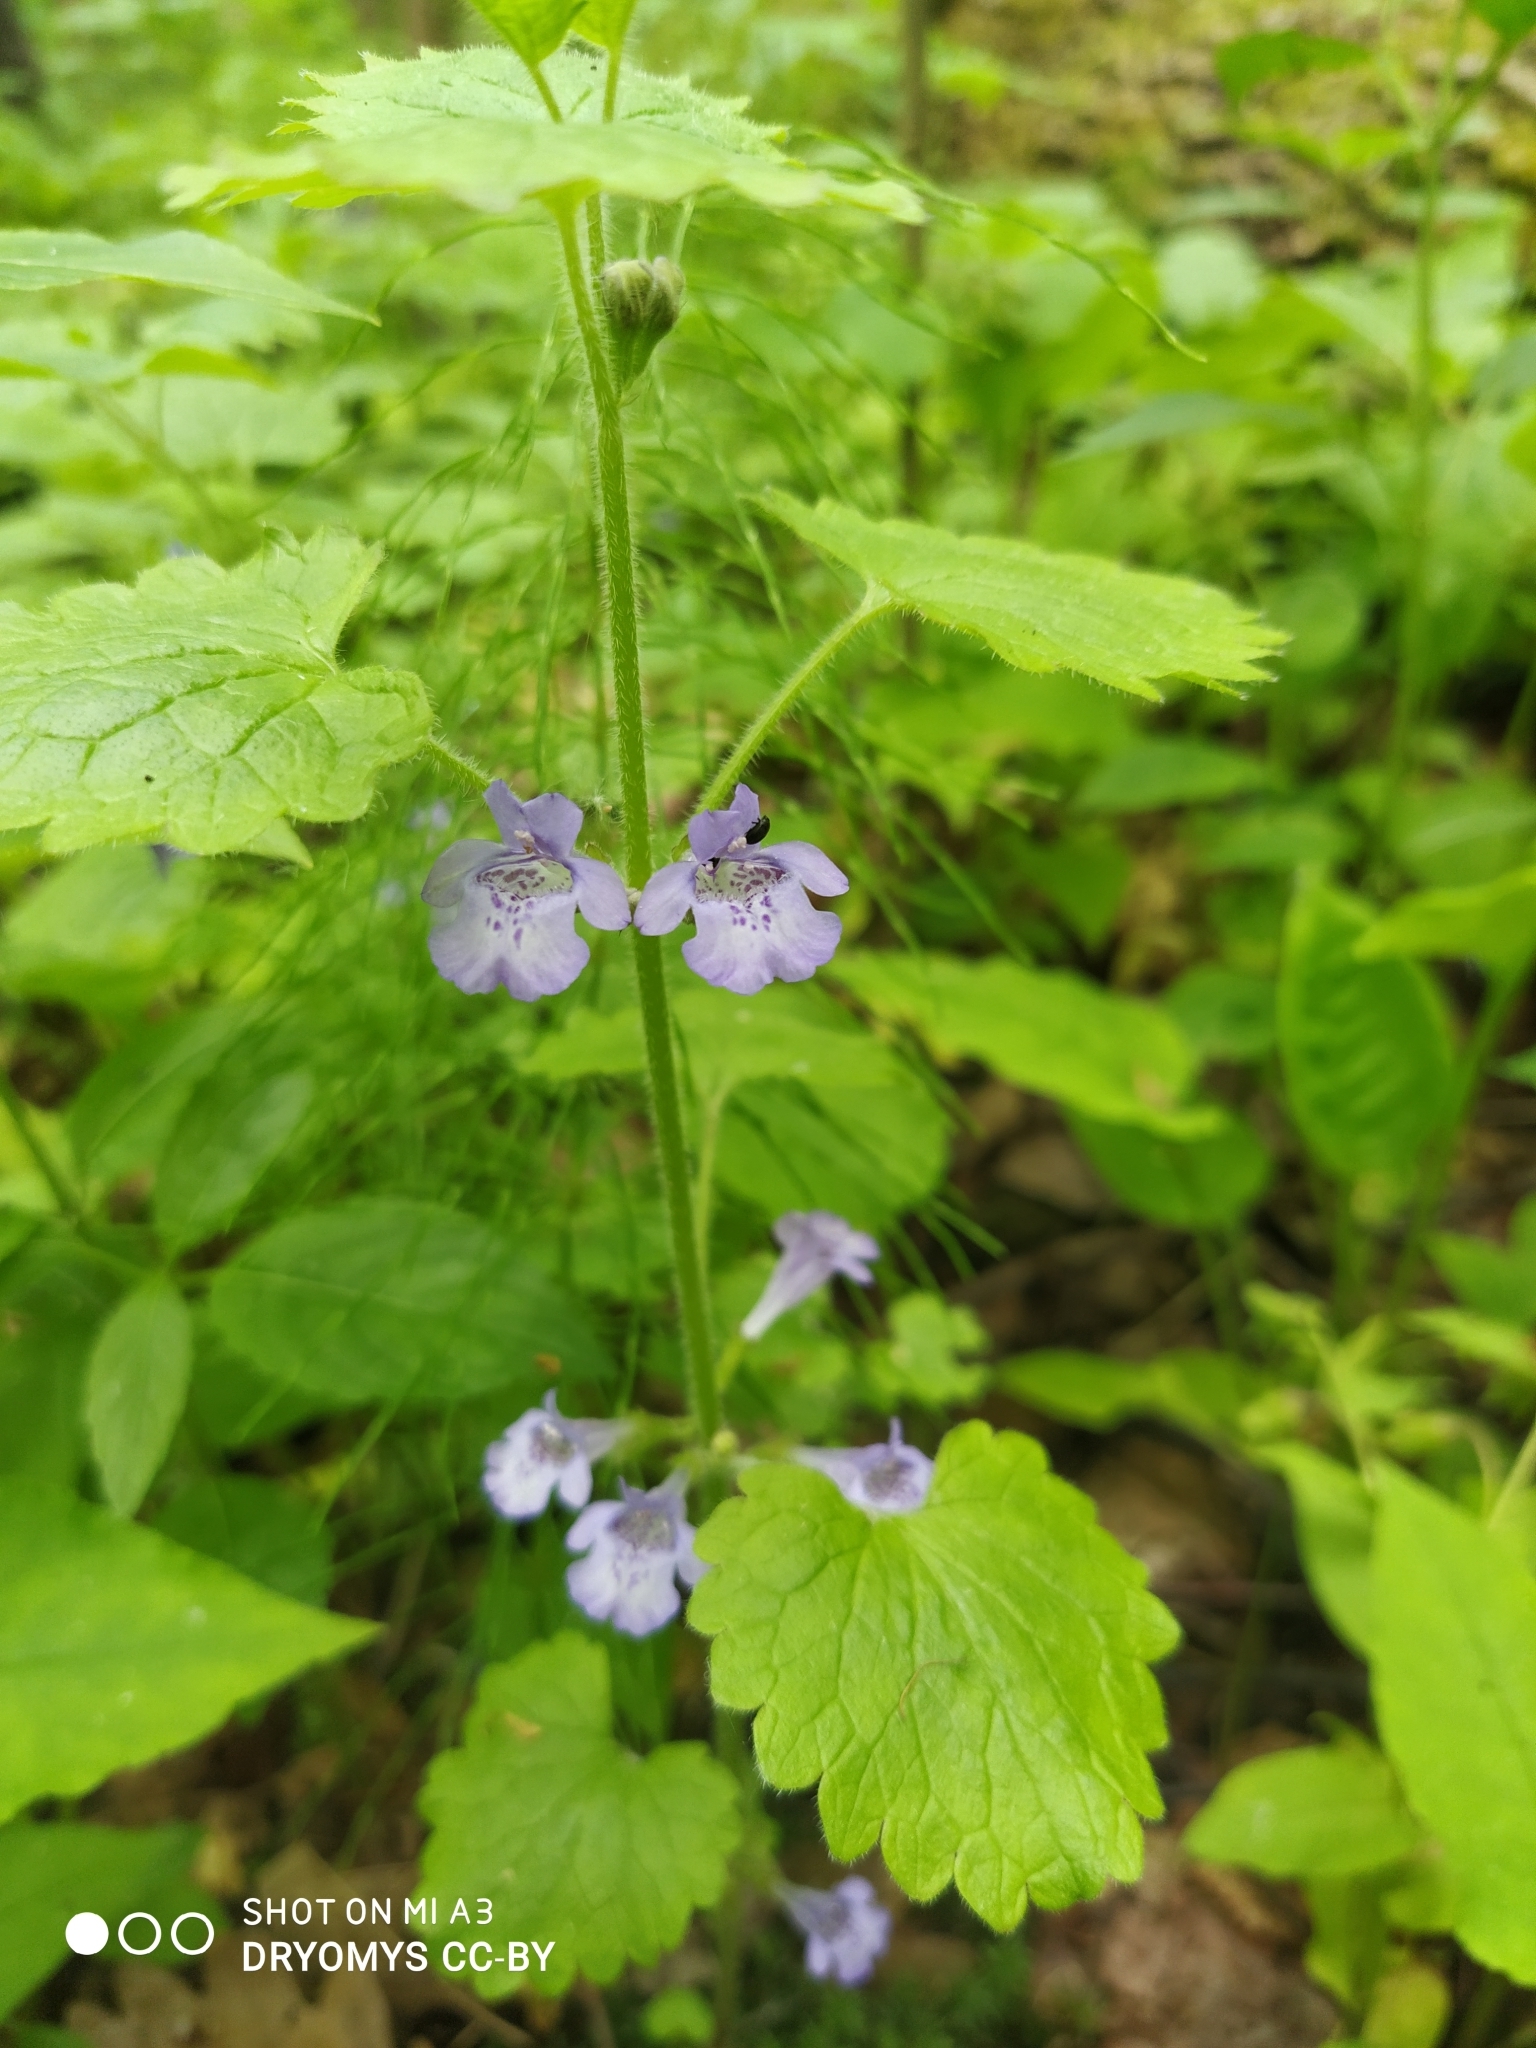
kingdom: Plantae
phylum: Tracheophyta
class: Magnoliopsida
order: Lamiales
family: Lamiaceae
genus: Glechoma
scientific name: Glechoma hederacea
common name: Ground ivy
